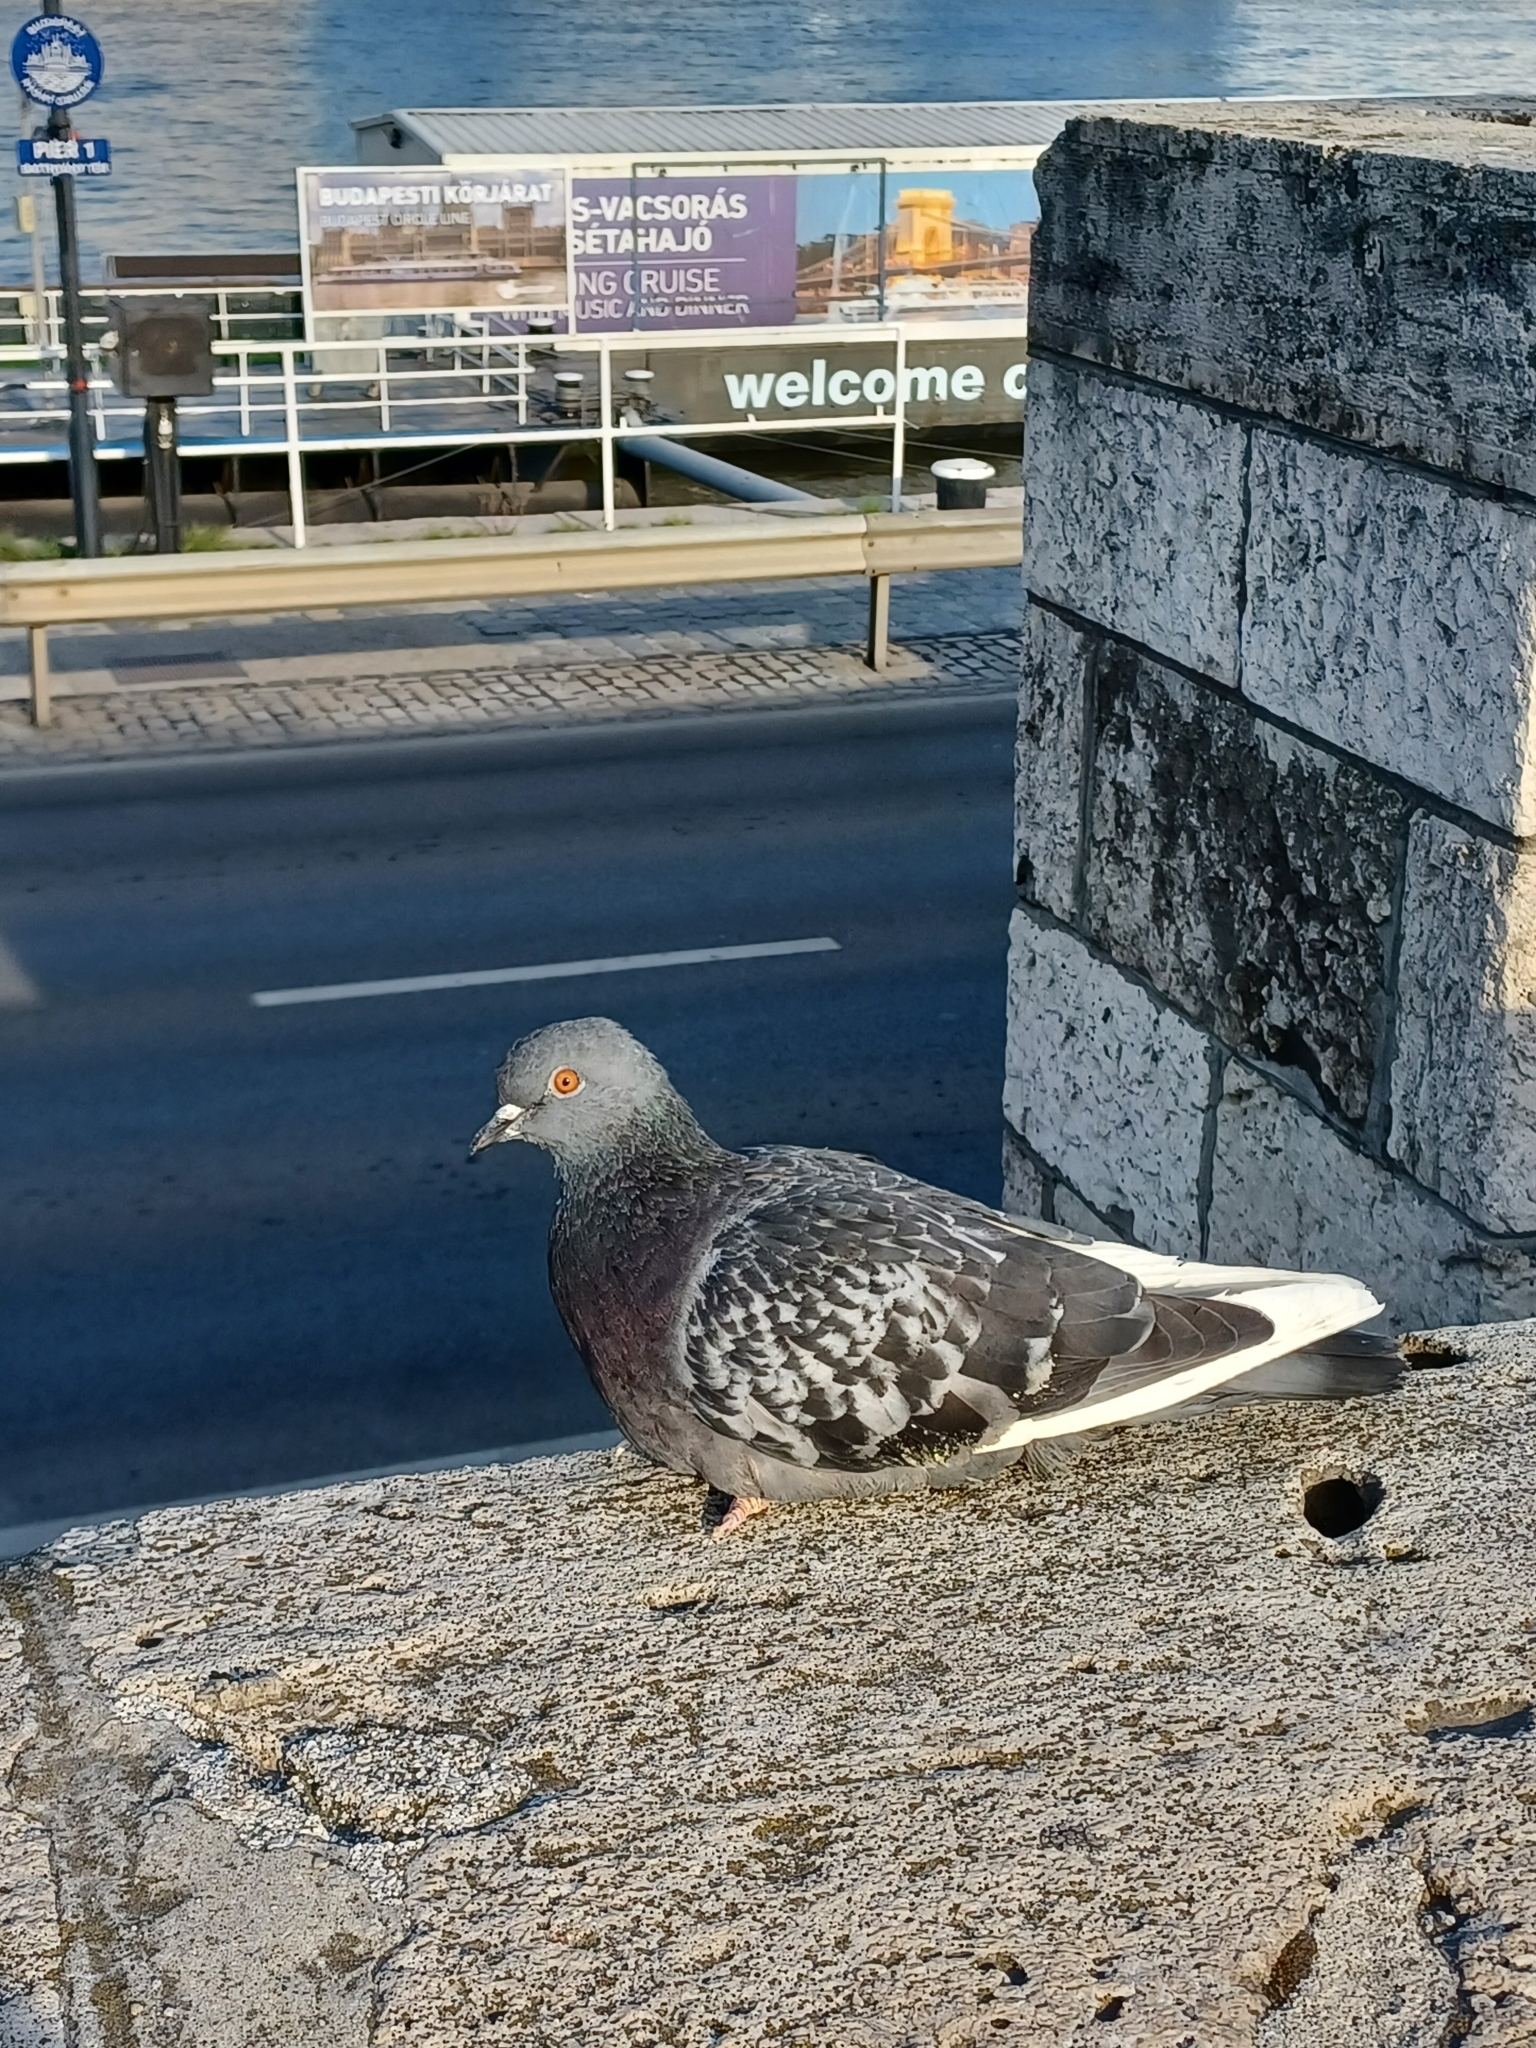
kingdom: Animalia
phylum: Chordata
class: Aves
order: Columbiformes
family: Columbidae
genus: Columba
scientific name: Columba livia
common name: Rock pigeon
